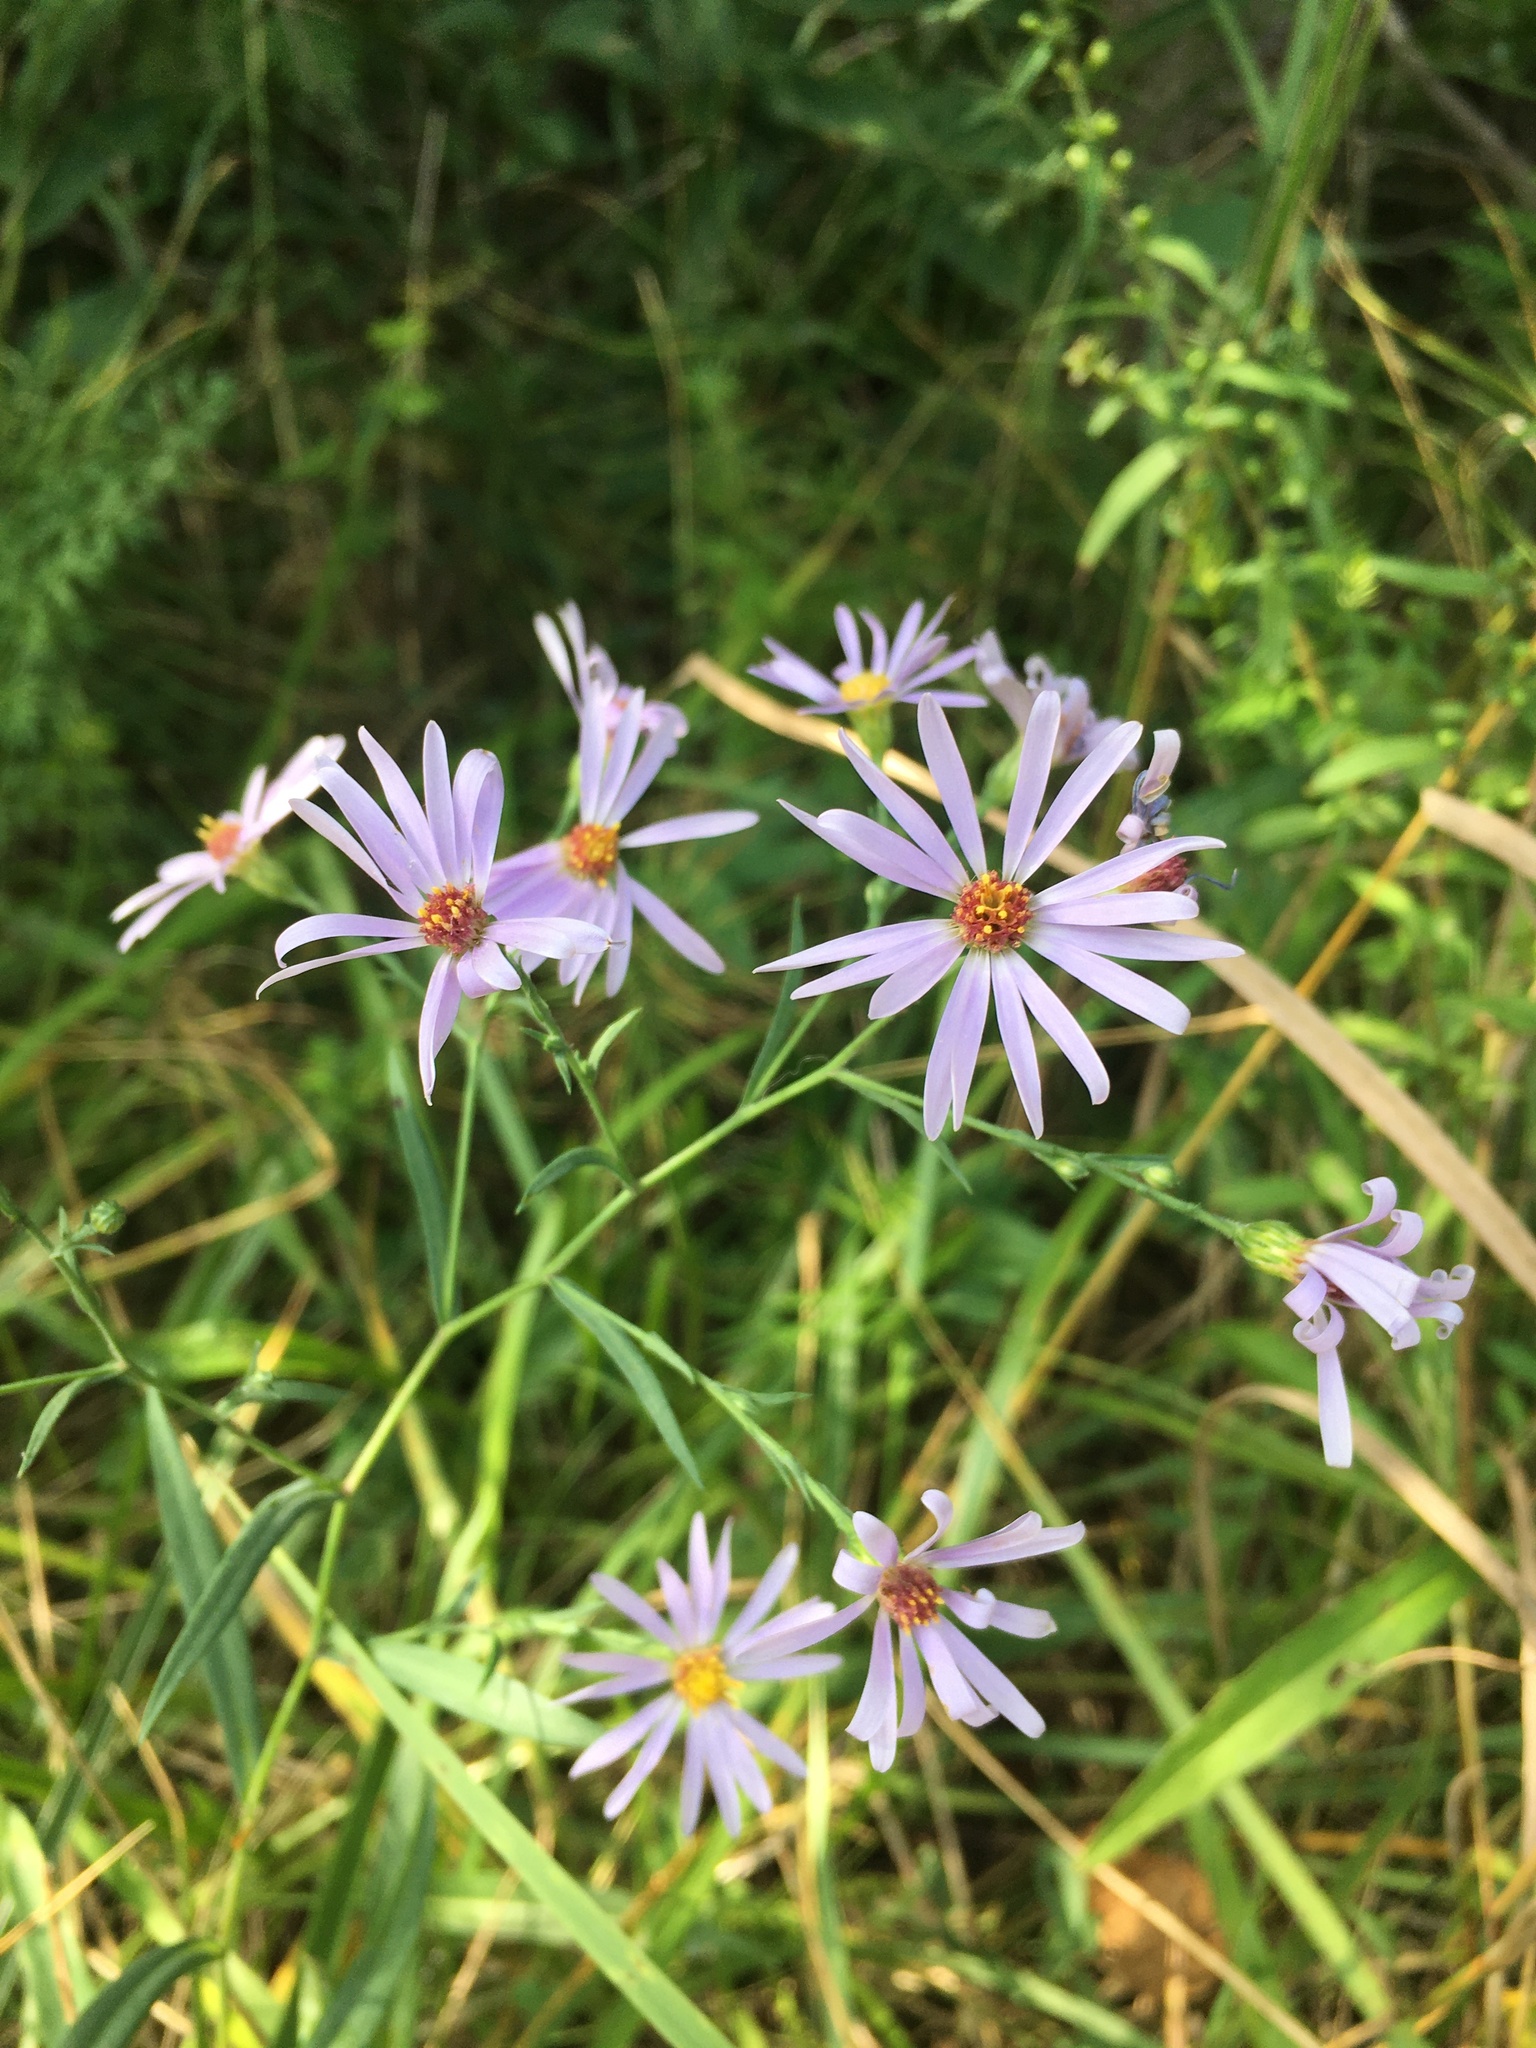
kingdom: Plantae
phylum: Tracheophyta
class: Magnoliopsida
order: Asterales
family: Asteraceae
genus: Symphyotrichum
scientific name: Symphyotrichum laeve
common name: Glaucous aster
